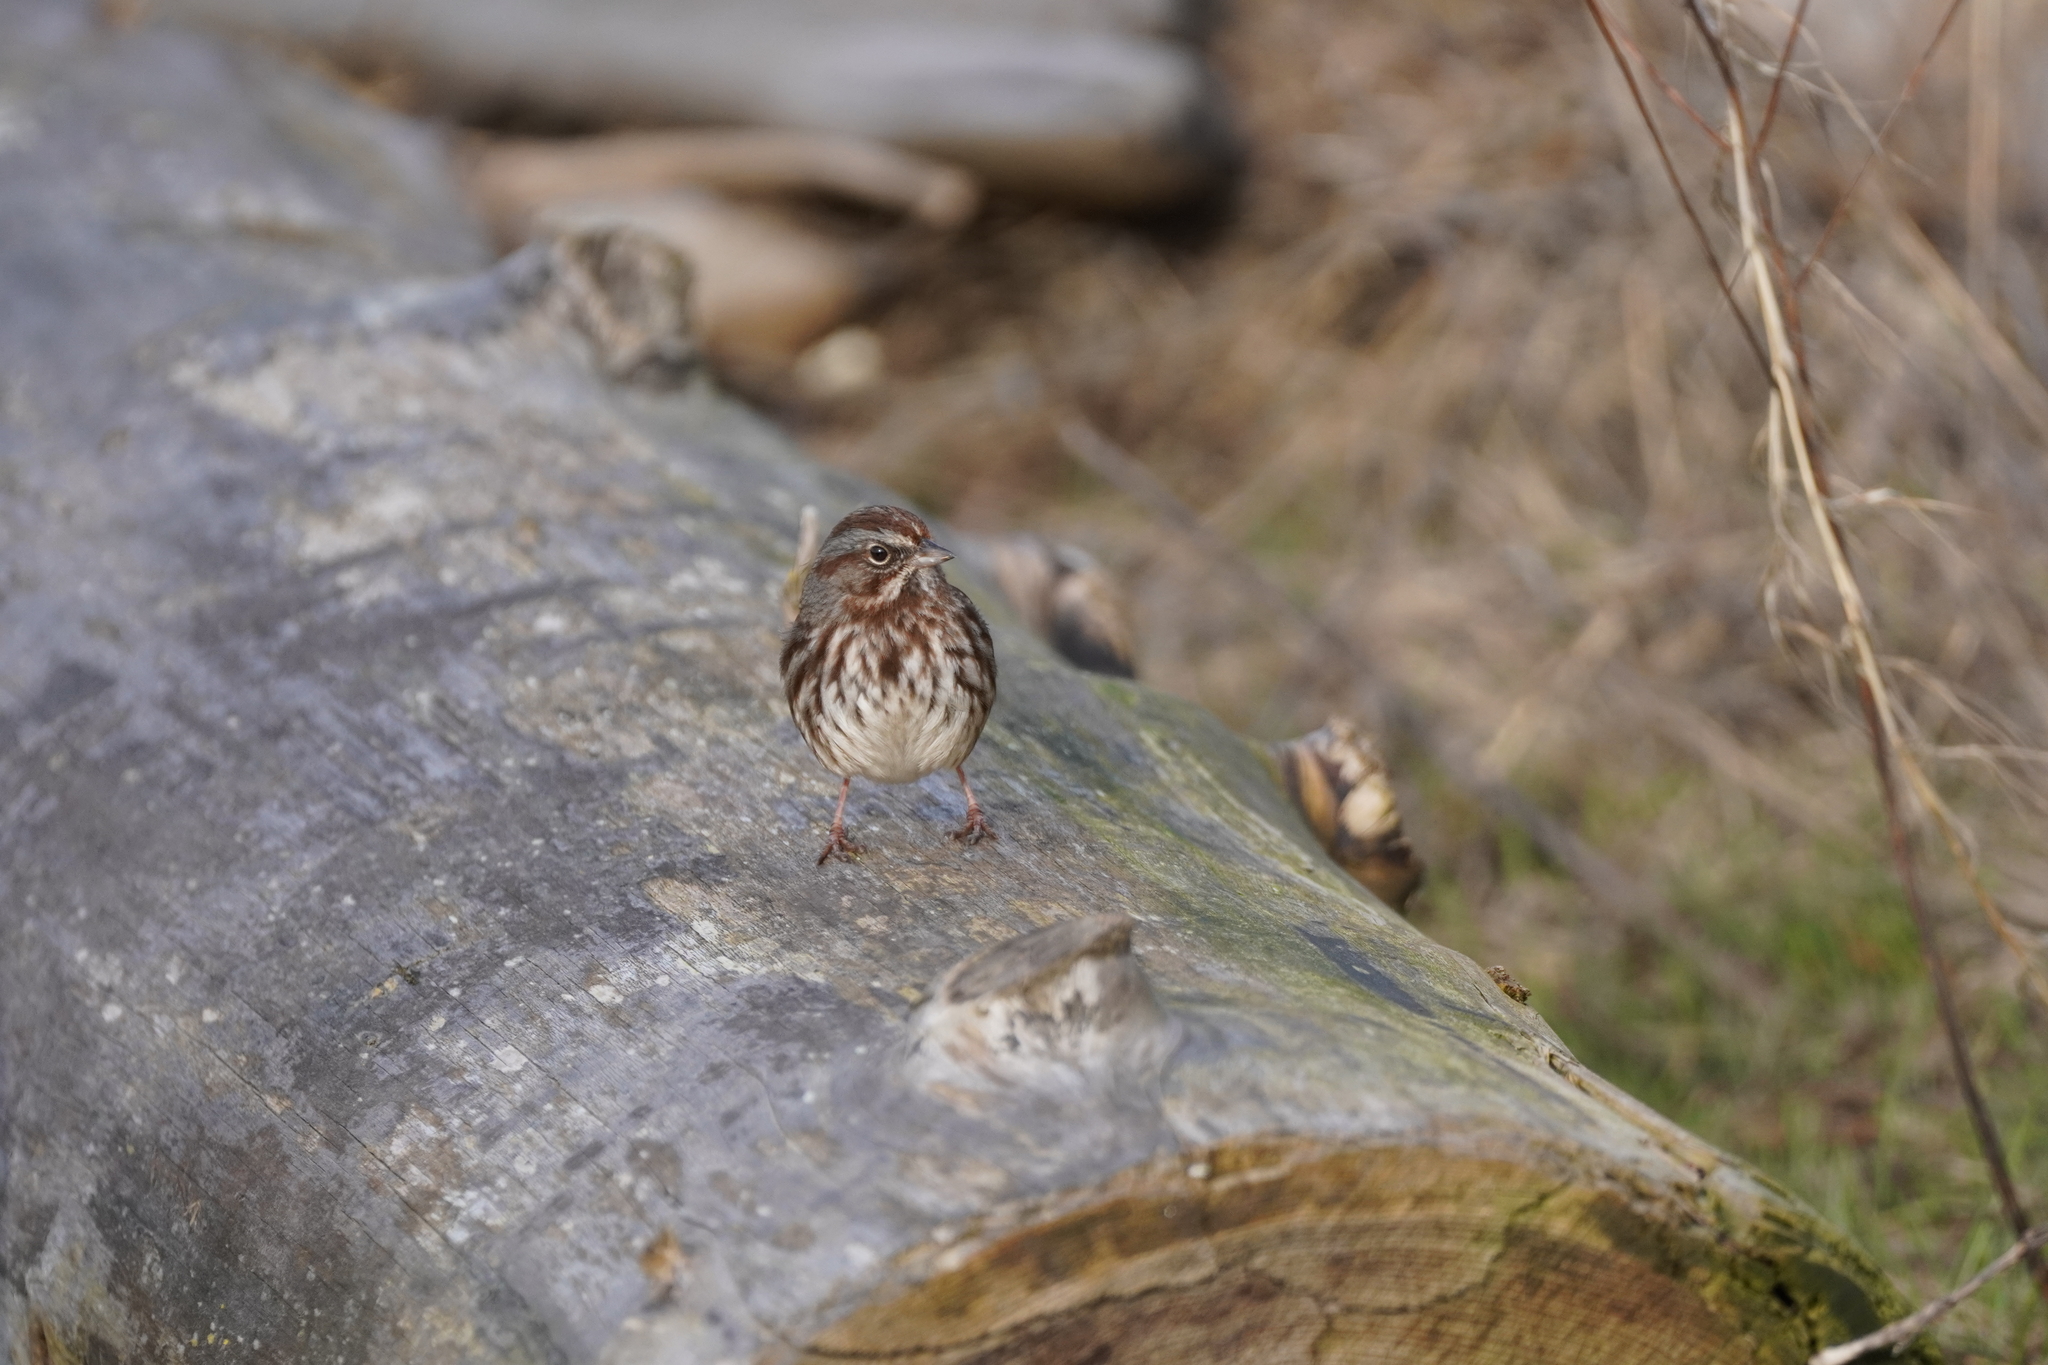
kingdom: Animalia
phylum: Chordata
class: Aves
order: Passeriformes
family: Passerellidae
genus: Melospiza
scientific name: Melospiza melodia
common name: Song sparrow
